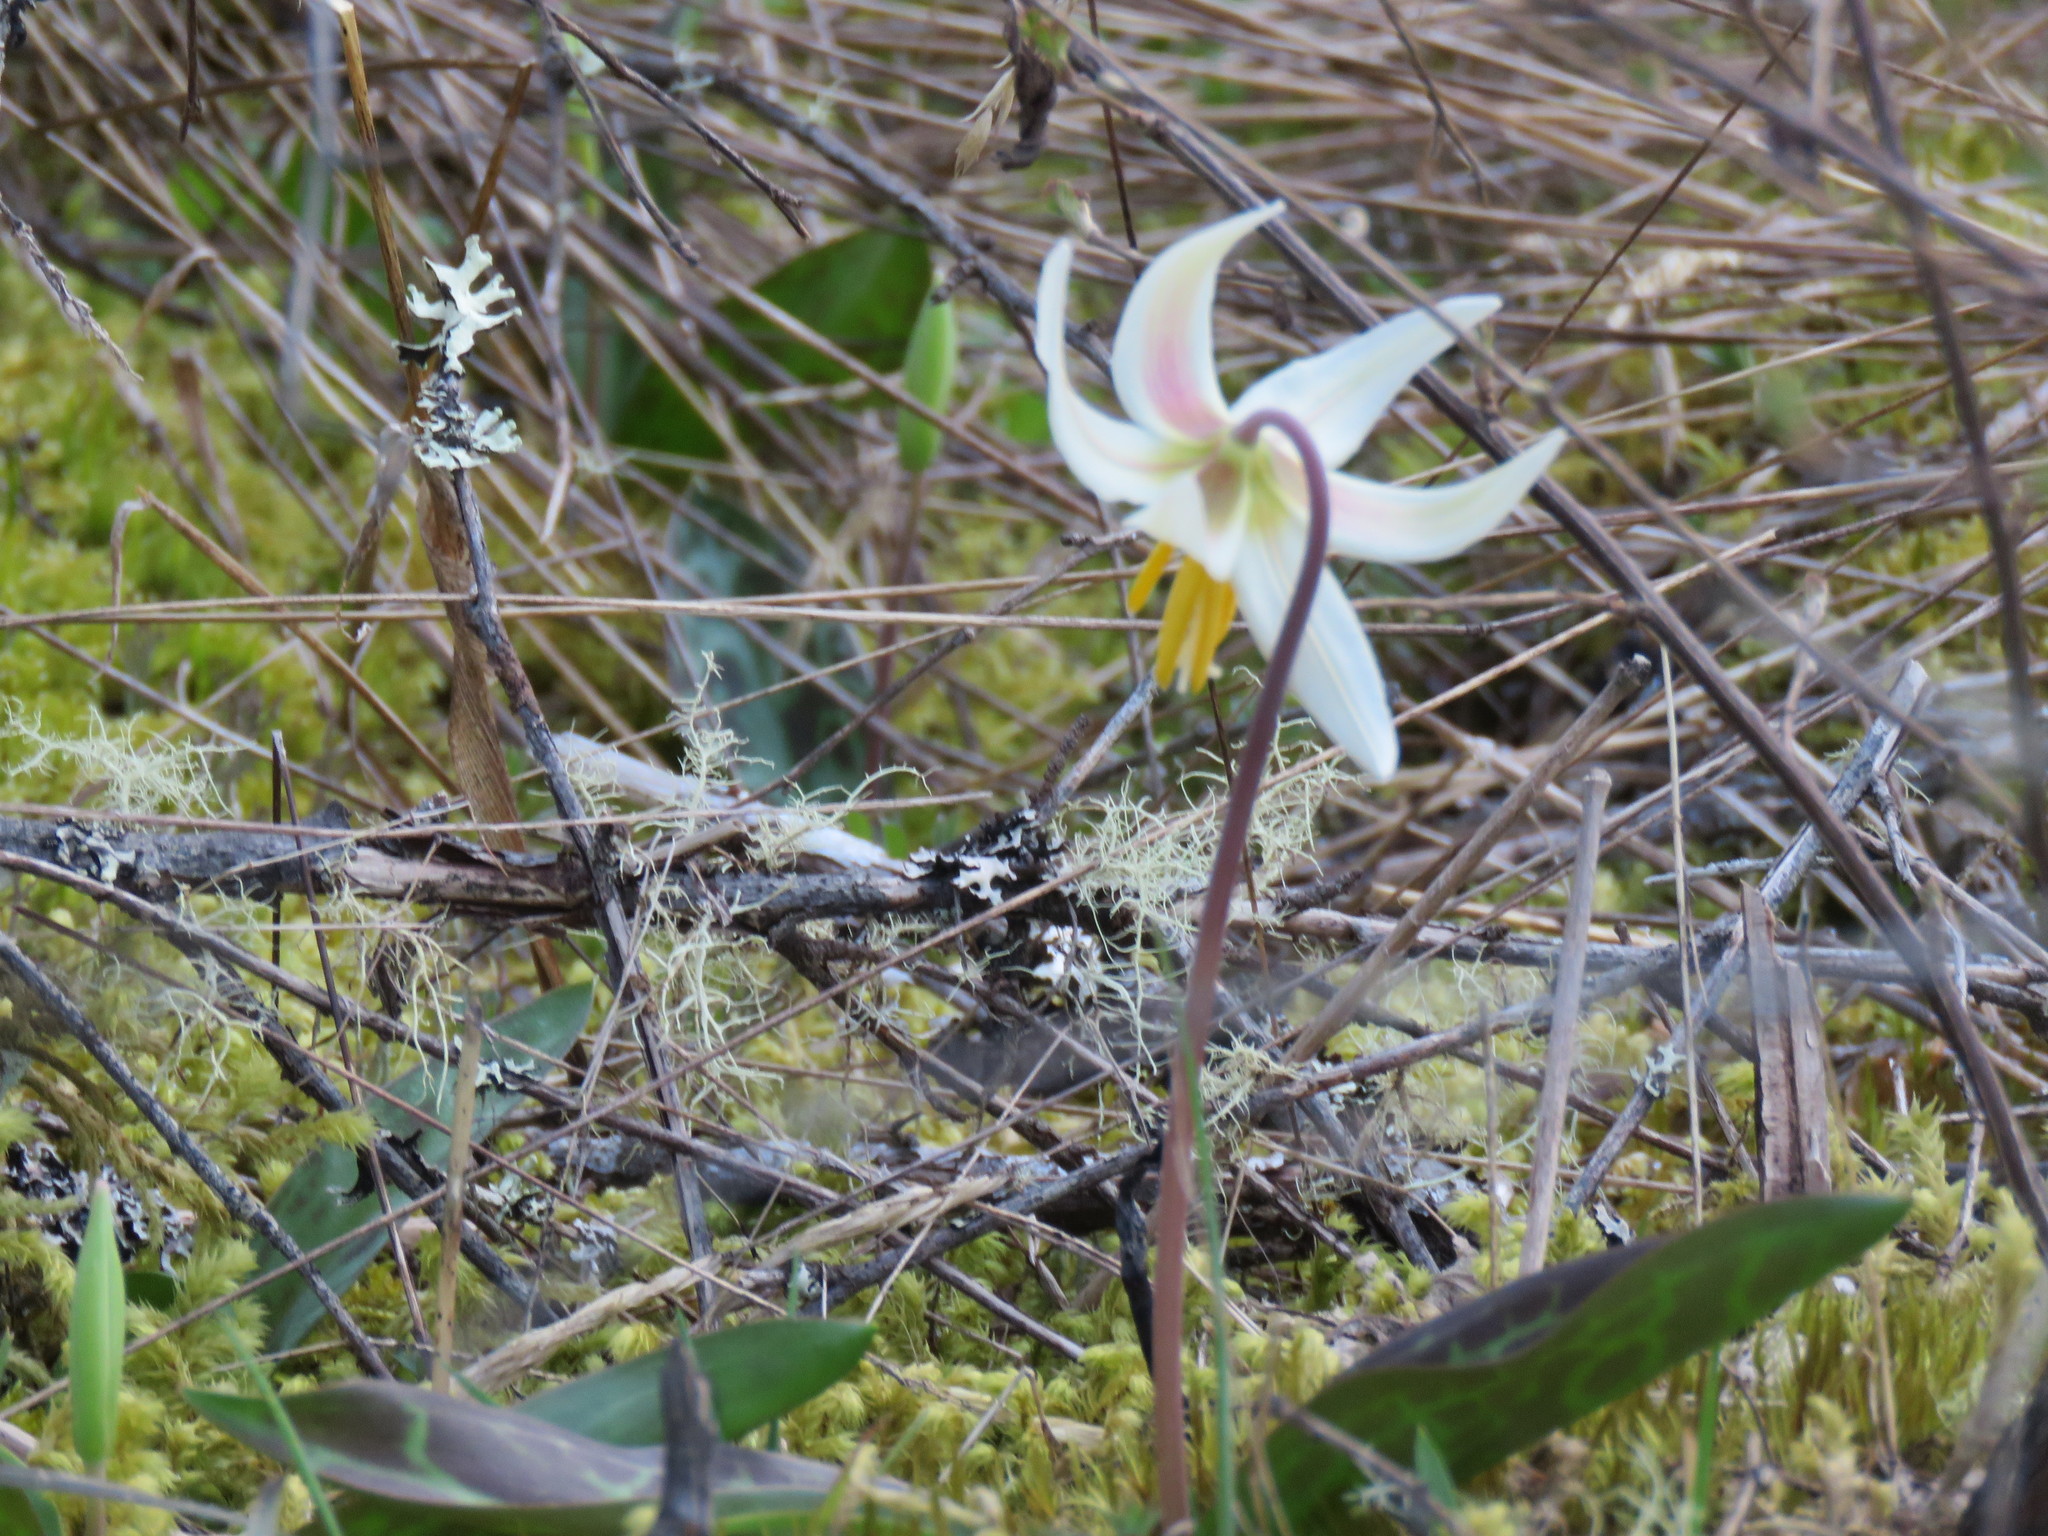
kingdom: Plantae
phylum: Tracheophyta
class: Liliopsida
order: Liliales
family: Liliaceae
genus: Erythronium
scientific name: Erythronium oregonum
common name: Giant adder's-tongue
